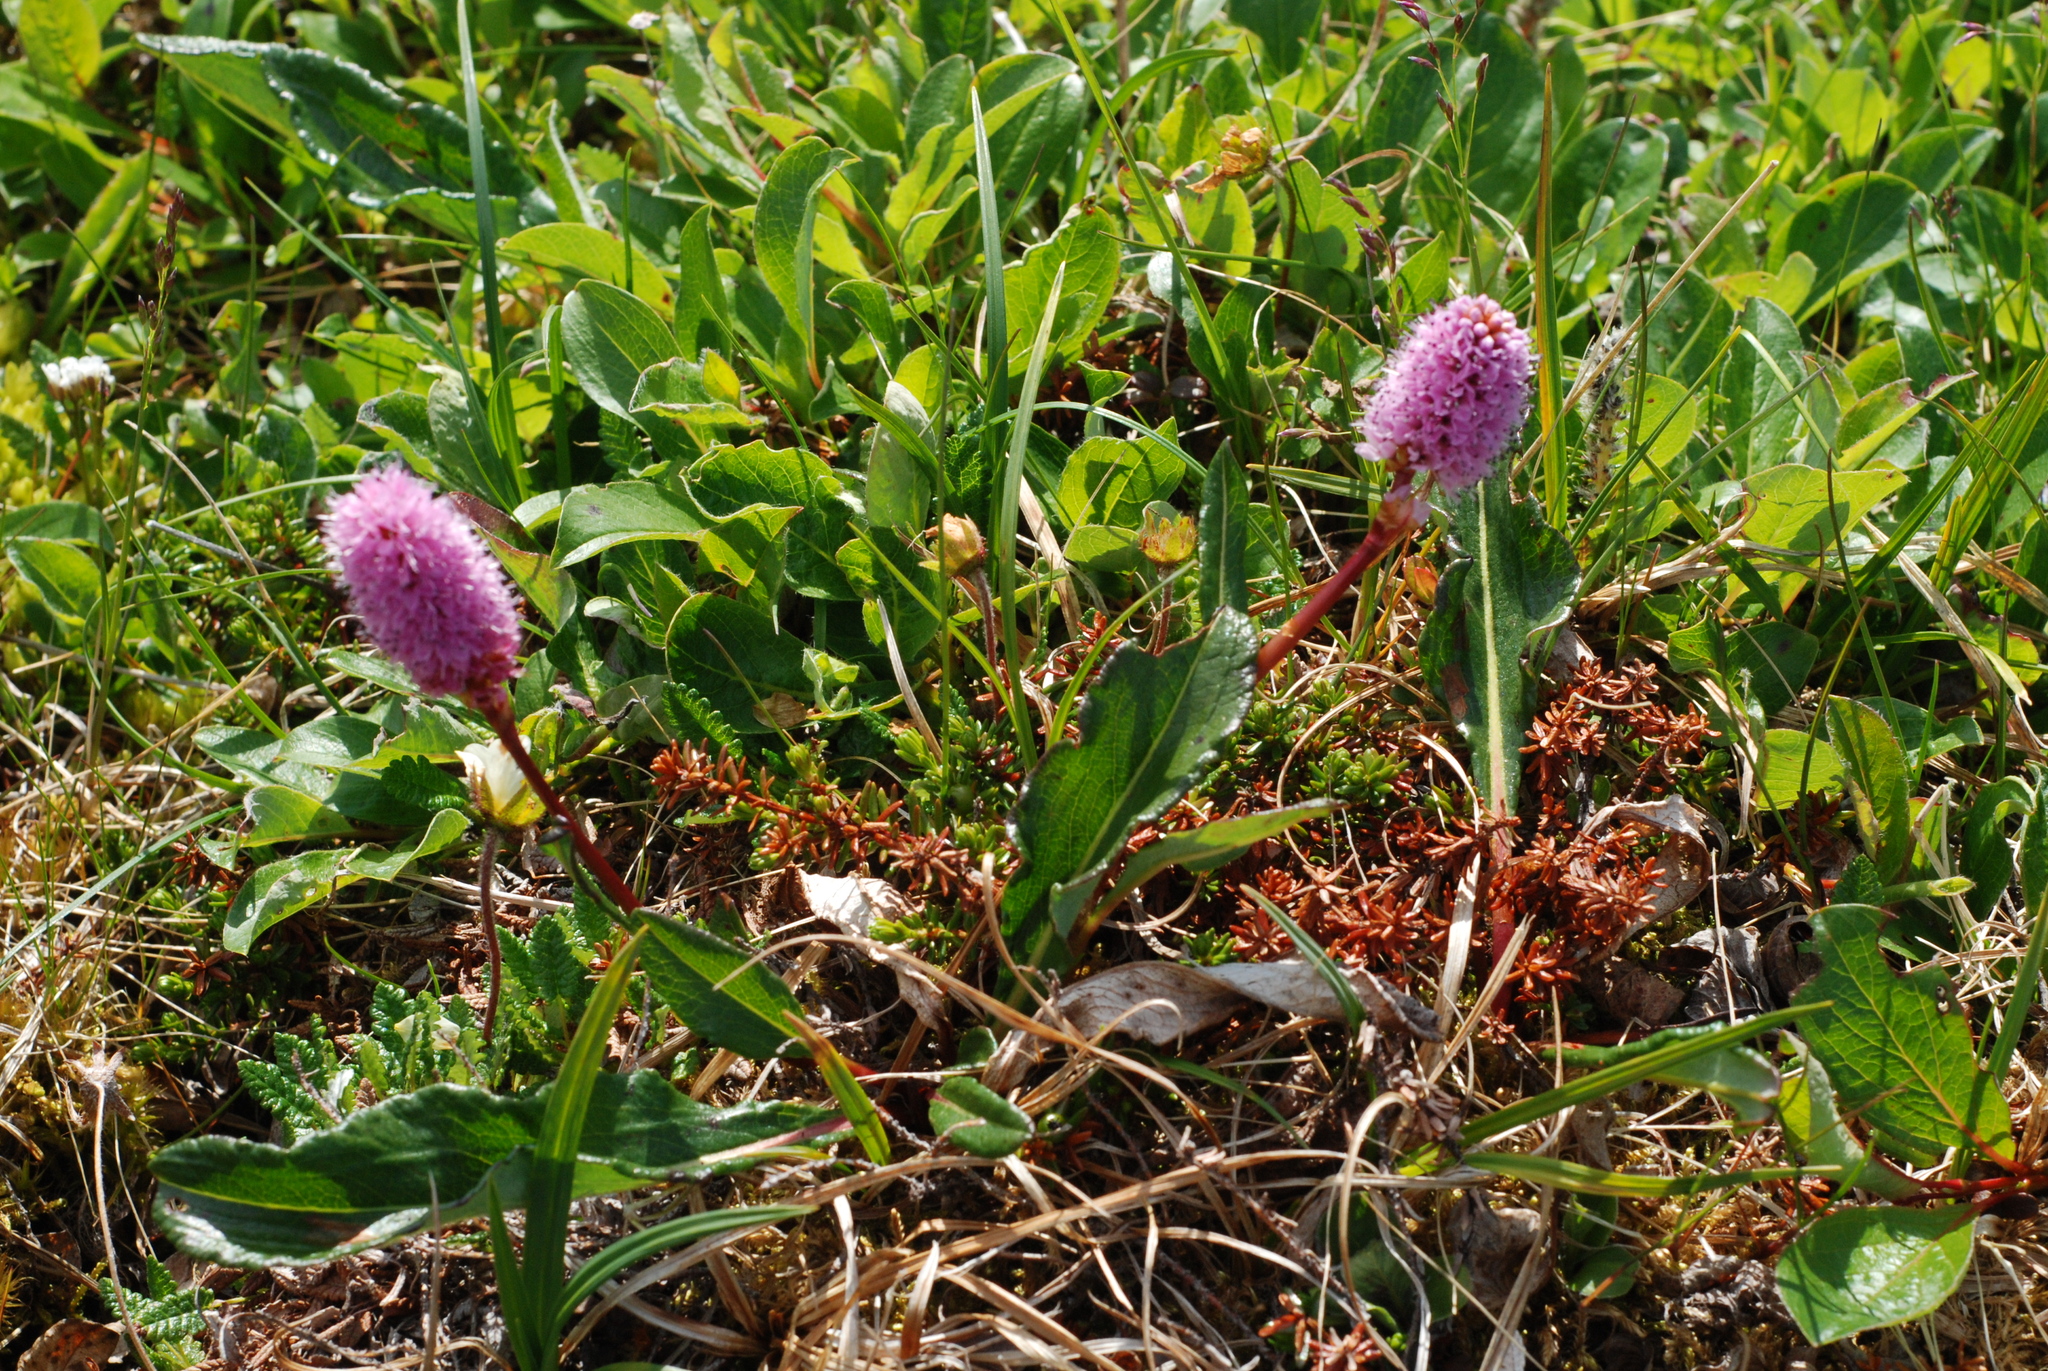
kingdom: Plantae
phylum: Tracheophyta
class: Magnoliopsida
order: Caryophyllales
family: Polygonaceae
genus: Bistorta
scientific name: Bistorta plumosa
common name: Meadow bistort
